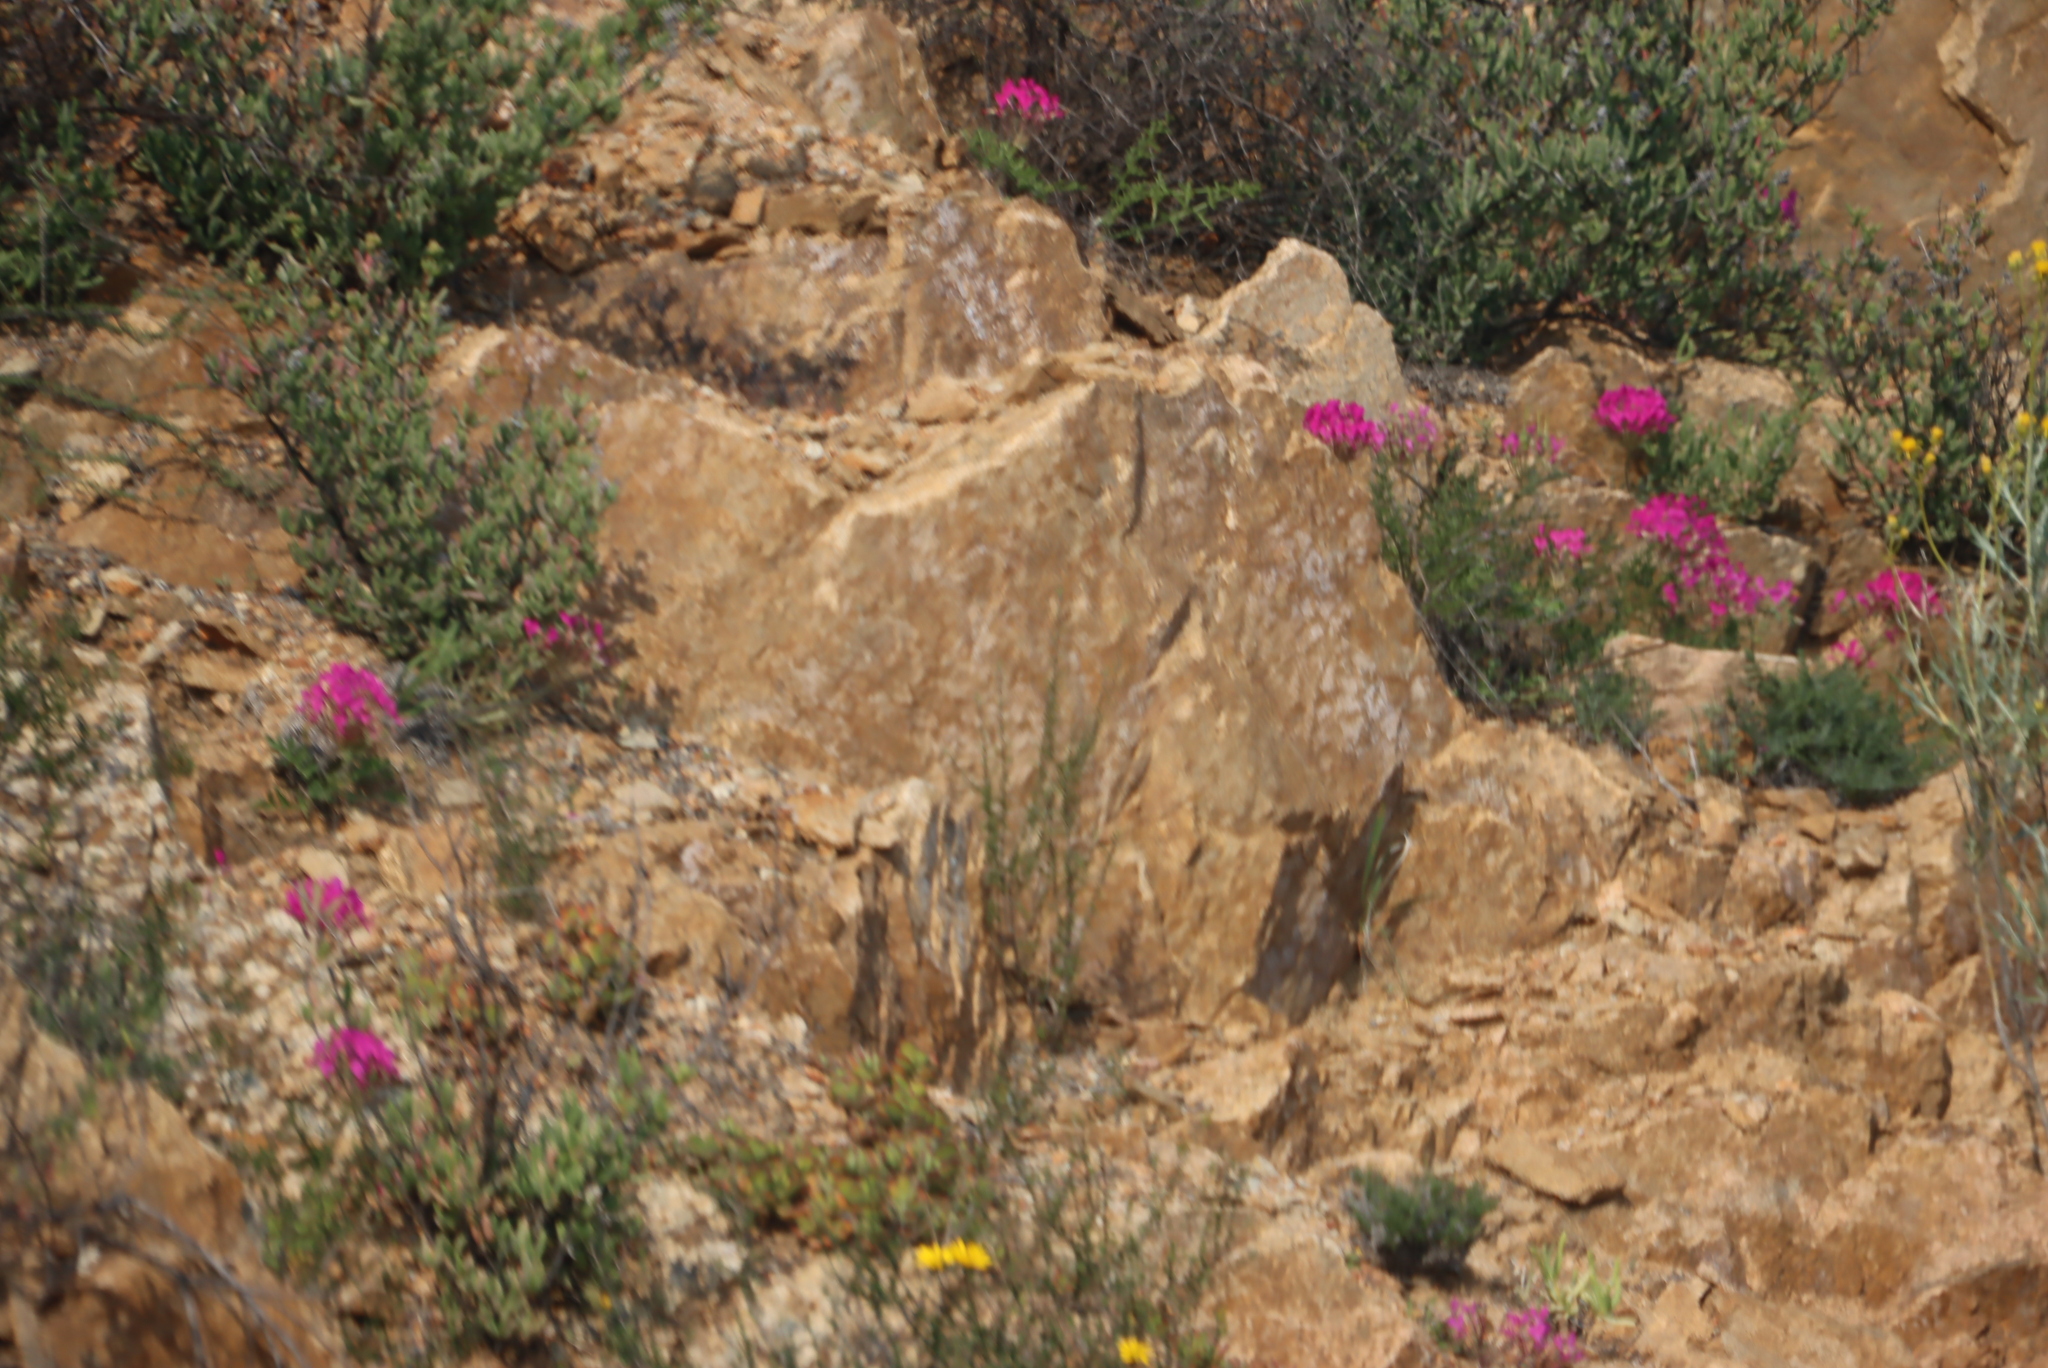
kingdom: Plantae
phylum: Tracheophyta
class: Magnoliopsida
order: Geraniales
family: Geraniaceae
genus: Pelargonium
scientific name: Pelargonium incrassatum
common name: Namaqualand beauty
